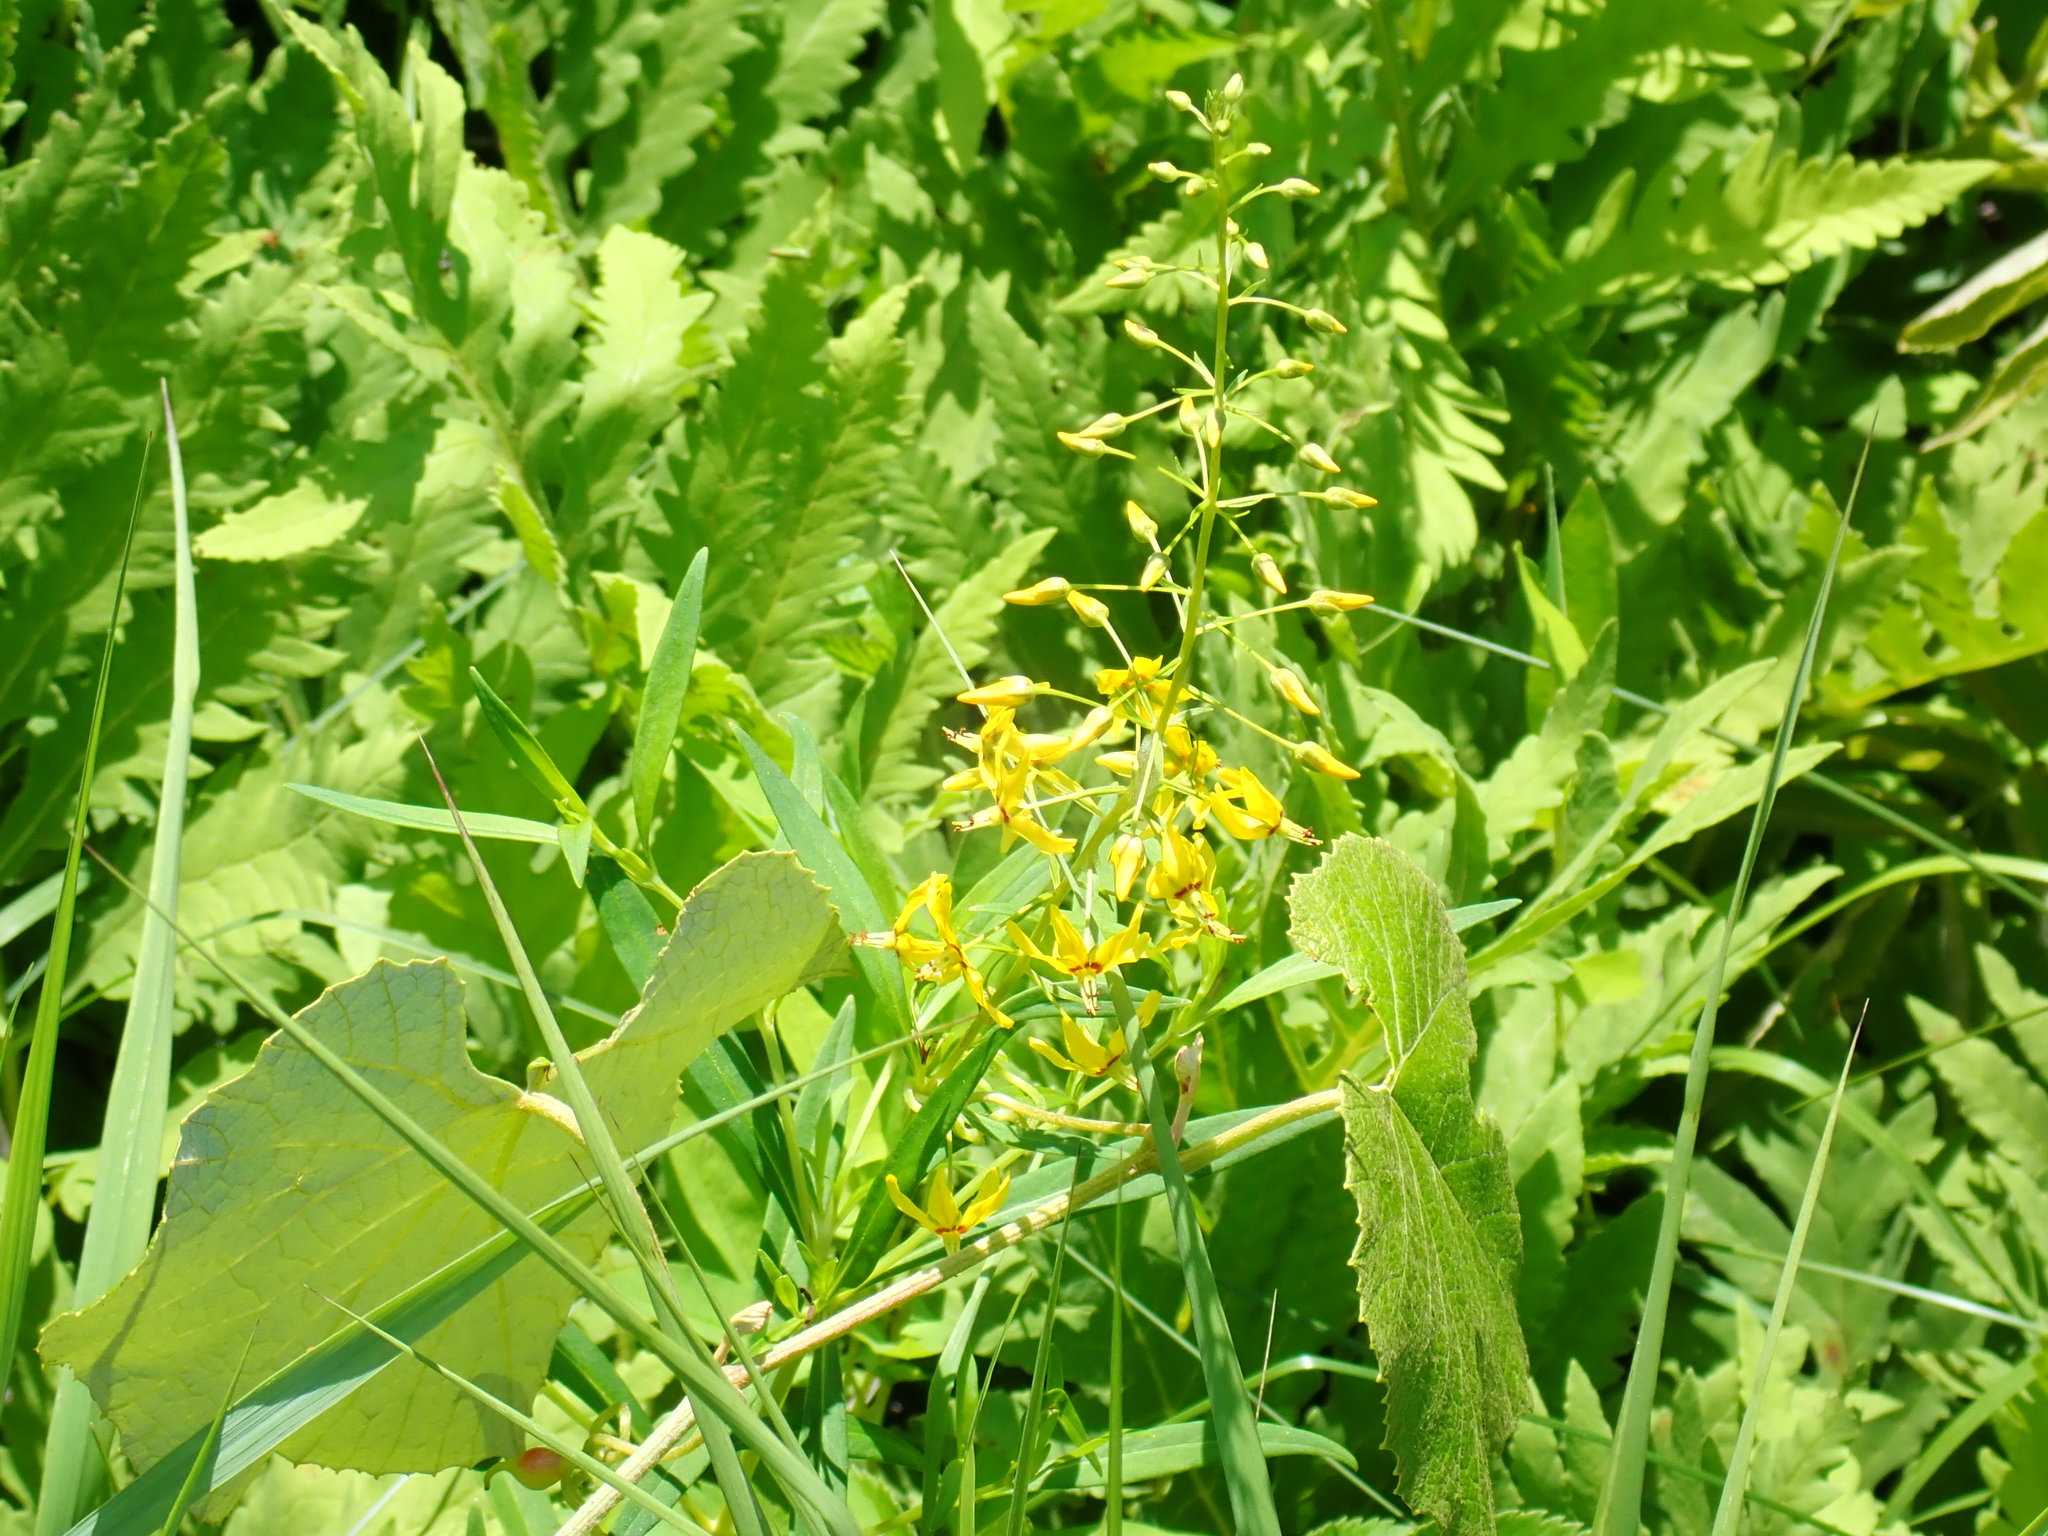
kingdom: Plantae
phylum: Tracheophyta
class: Magnoliopsida
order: Ericales
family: Primulaceae
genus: Lysimachia
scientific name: Lysimachia terrestris
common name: Lake loosestrife
